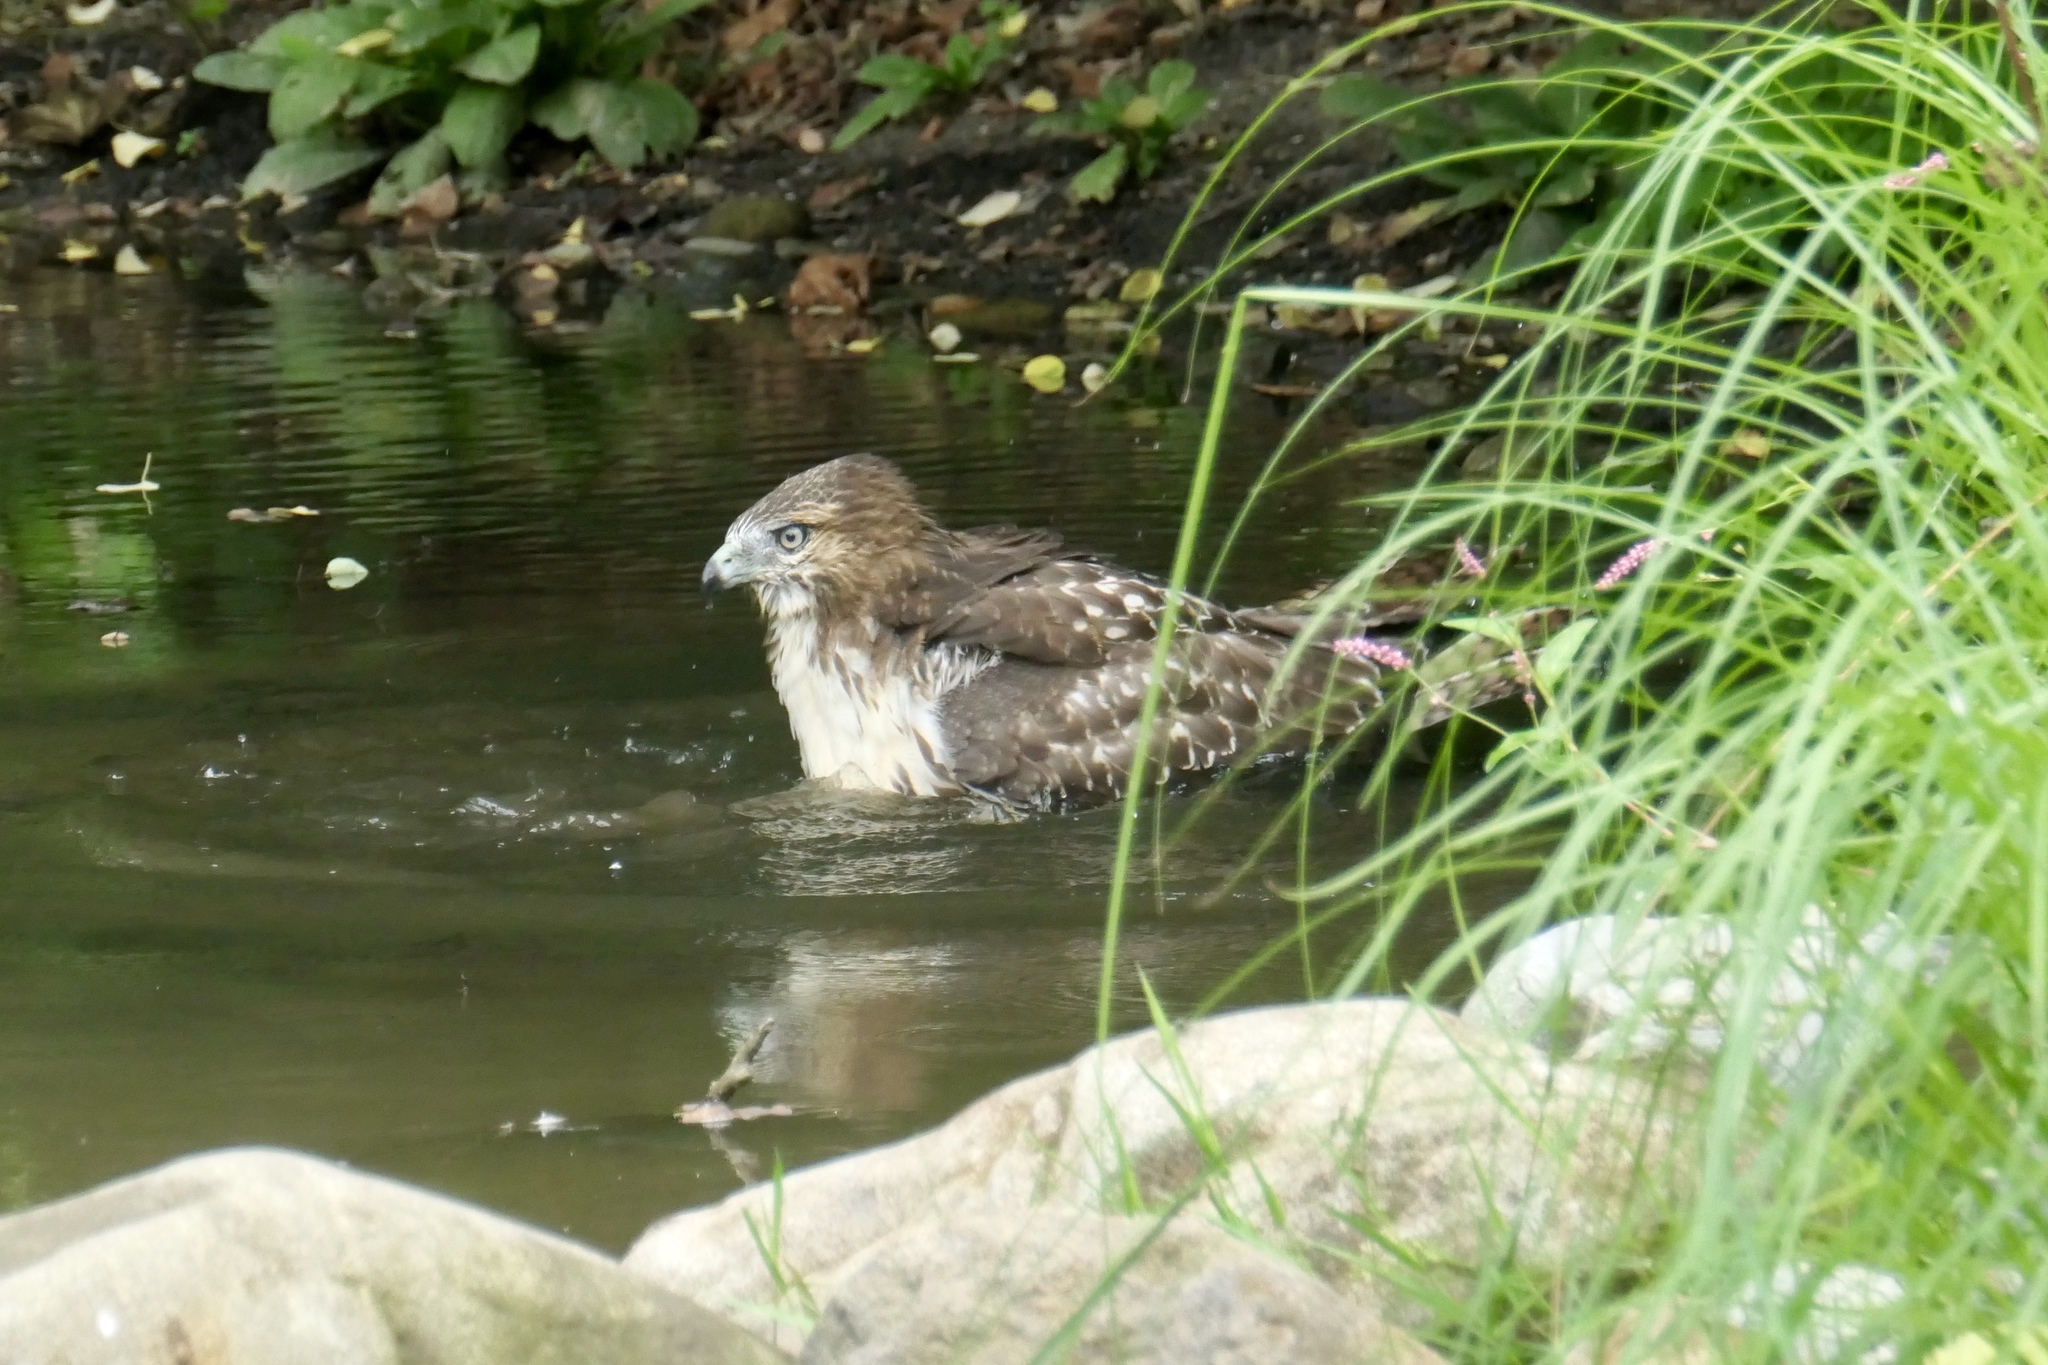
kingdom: Animalia
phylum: Chordata
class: Aves
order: Accipitriformes
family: Accipitridae
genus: Buteo
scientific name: Buteo jamaicensis
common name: Red-tailed hawk
